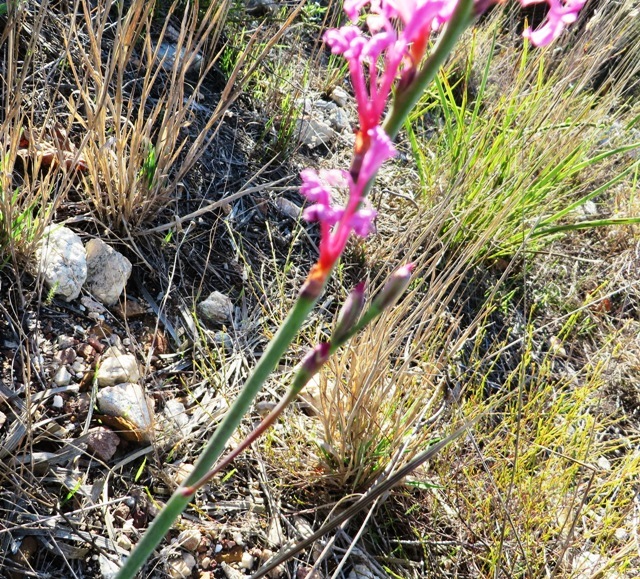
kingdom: Plantae
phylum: Tracheophyta
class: Liliopsida
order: Asparagales
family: Iridaceae
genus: Tritoniopsis
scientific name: Tritoniopsis ramosa
